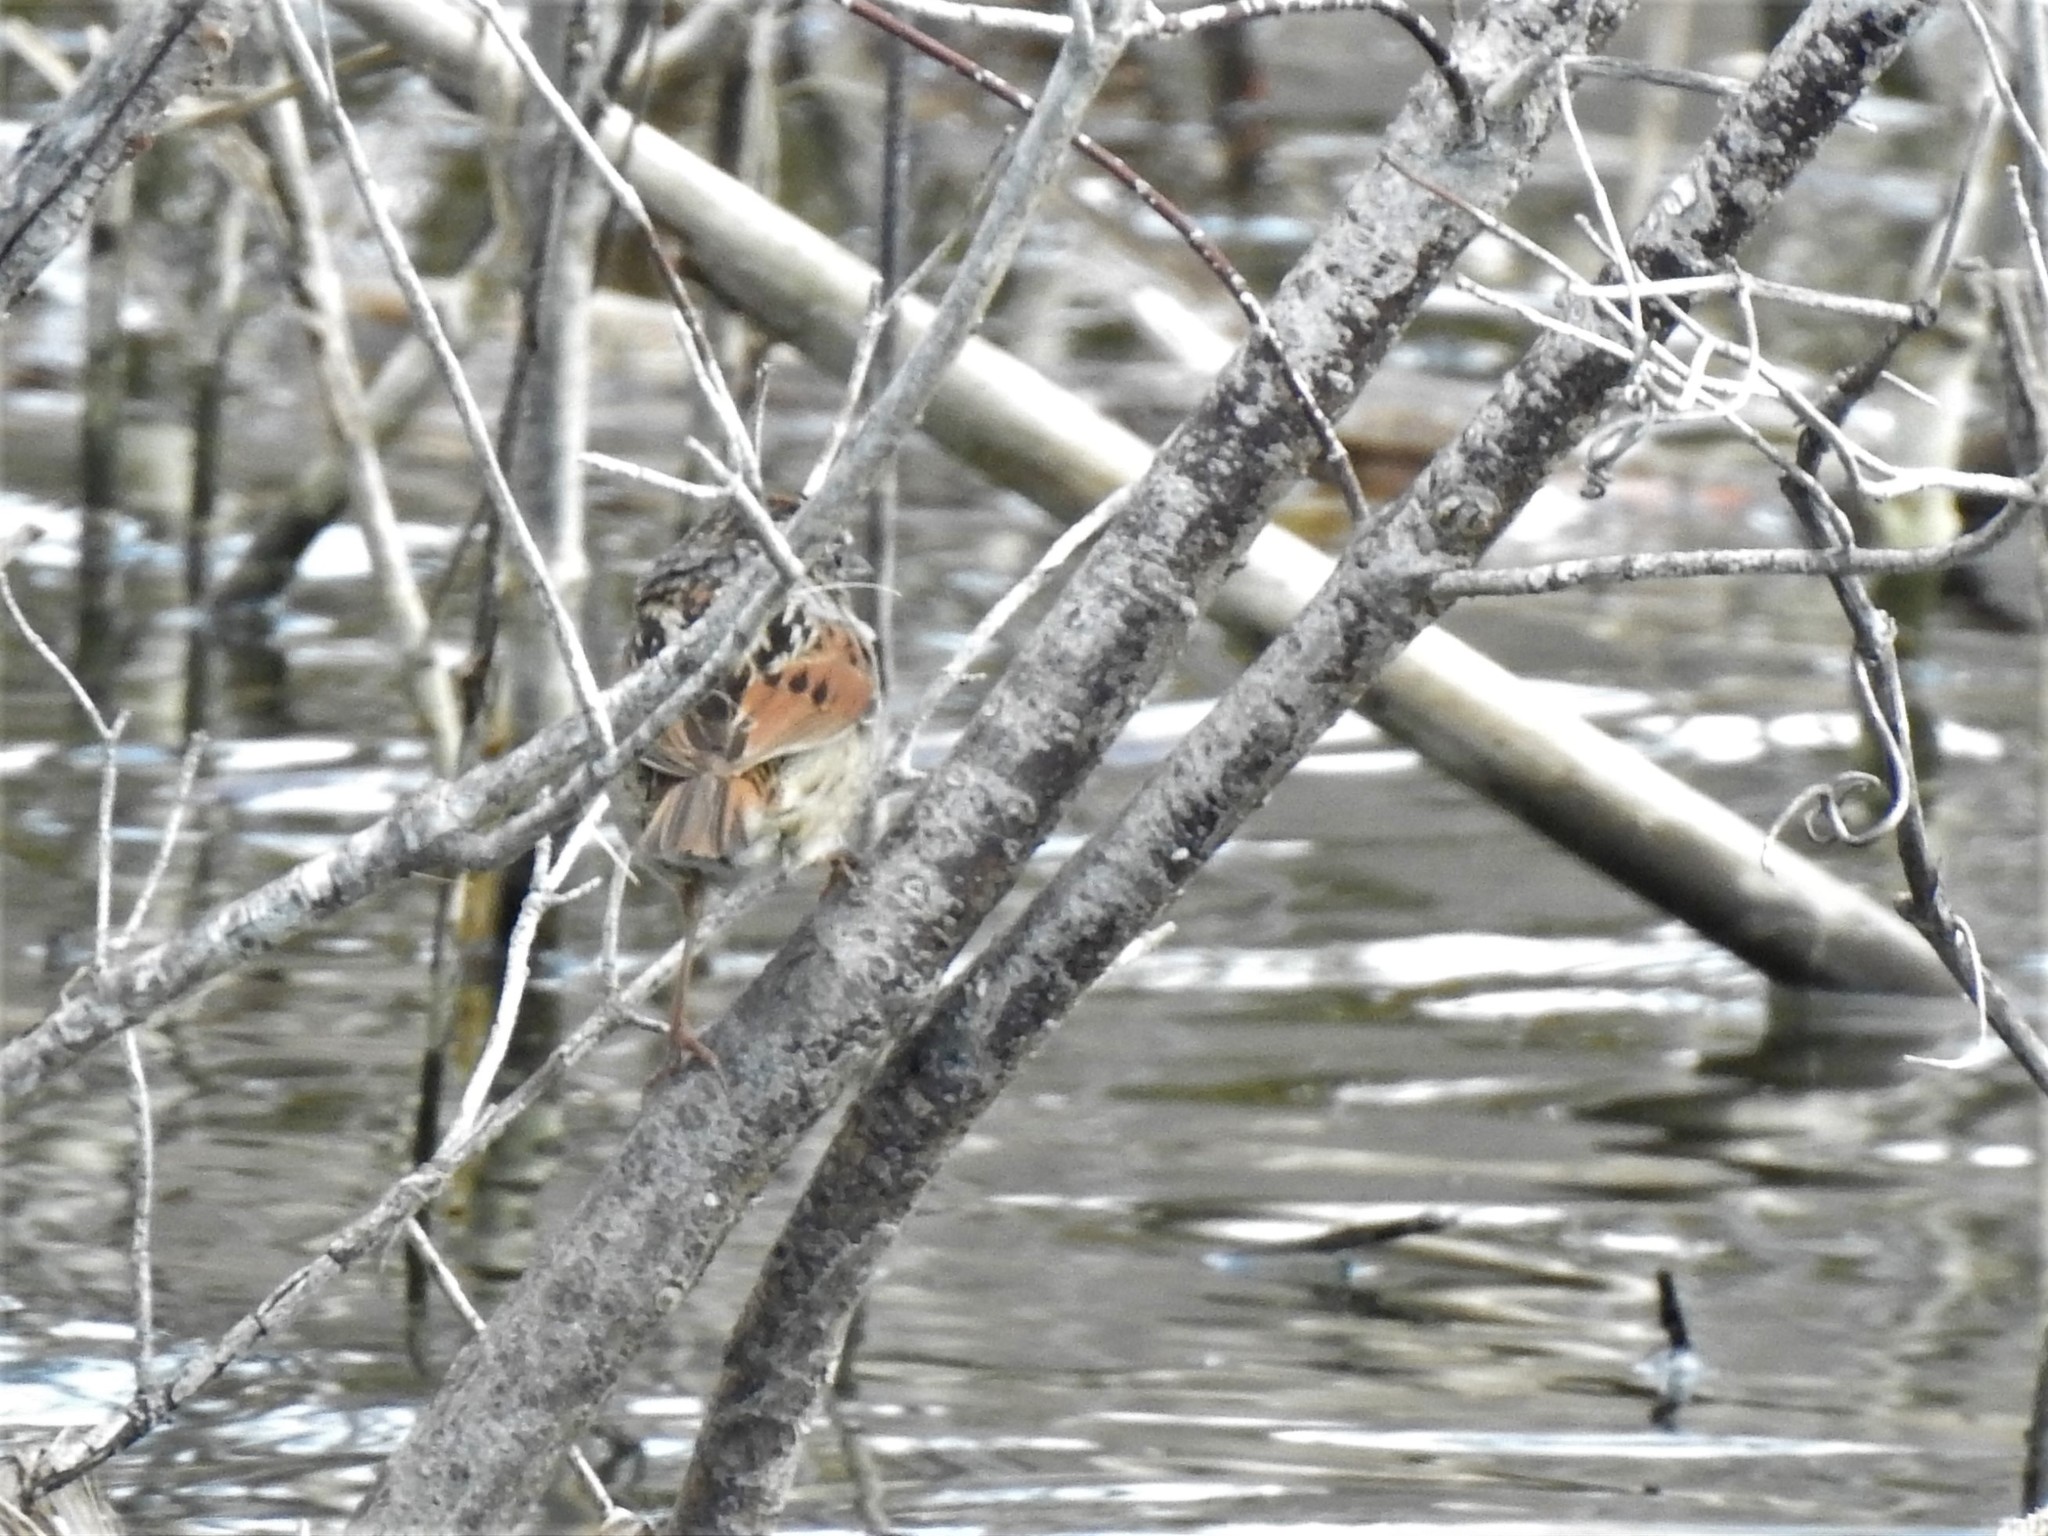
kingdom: Animalia
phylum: Chordata
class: Aves
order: Passeriformes
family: Passerellidae
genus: Melospiza
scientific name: Melospiza georgiana
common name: Swamp sparrow
